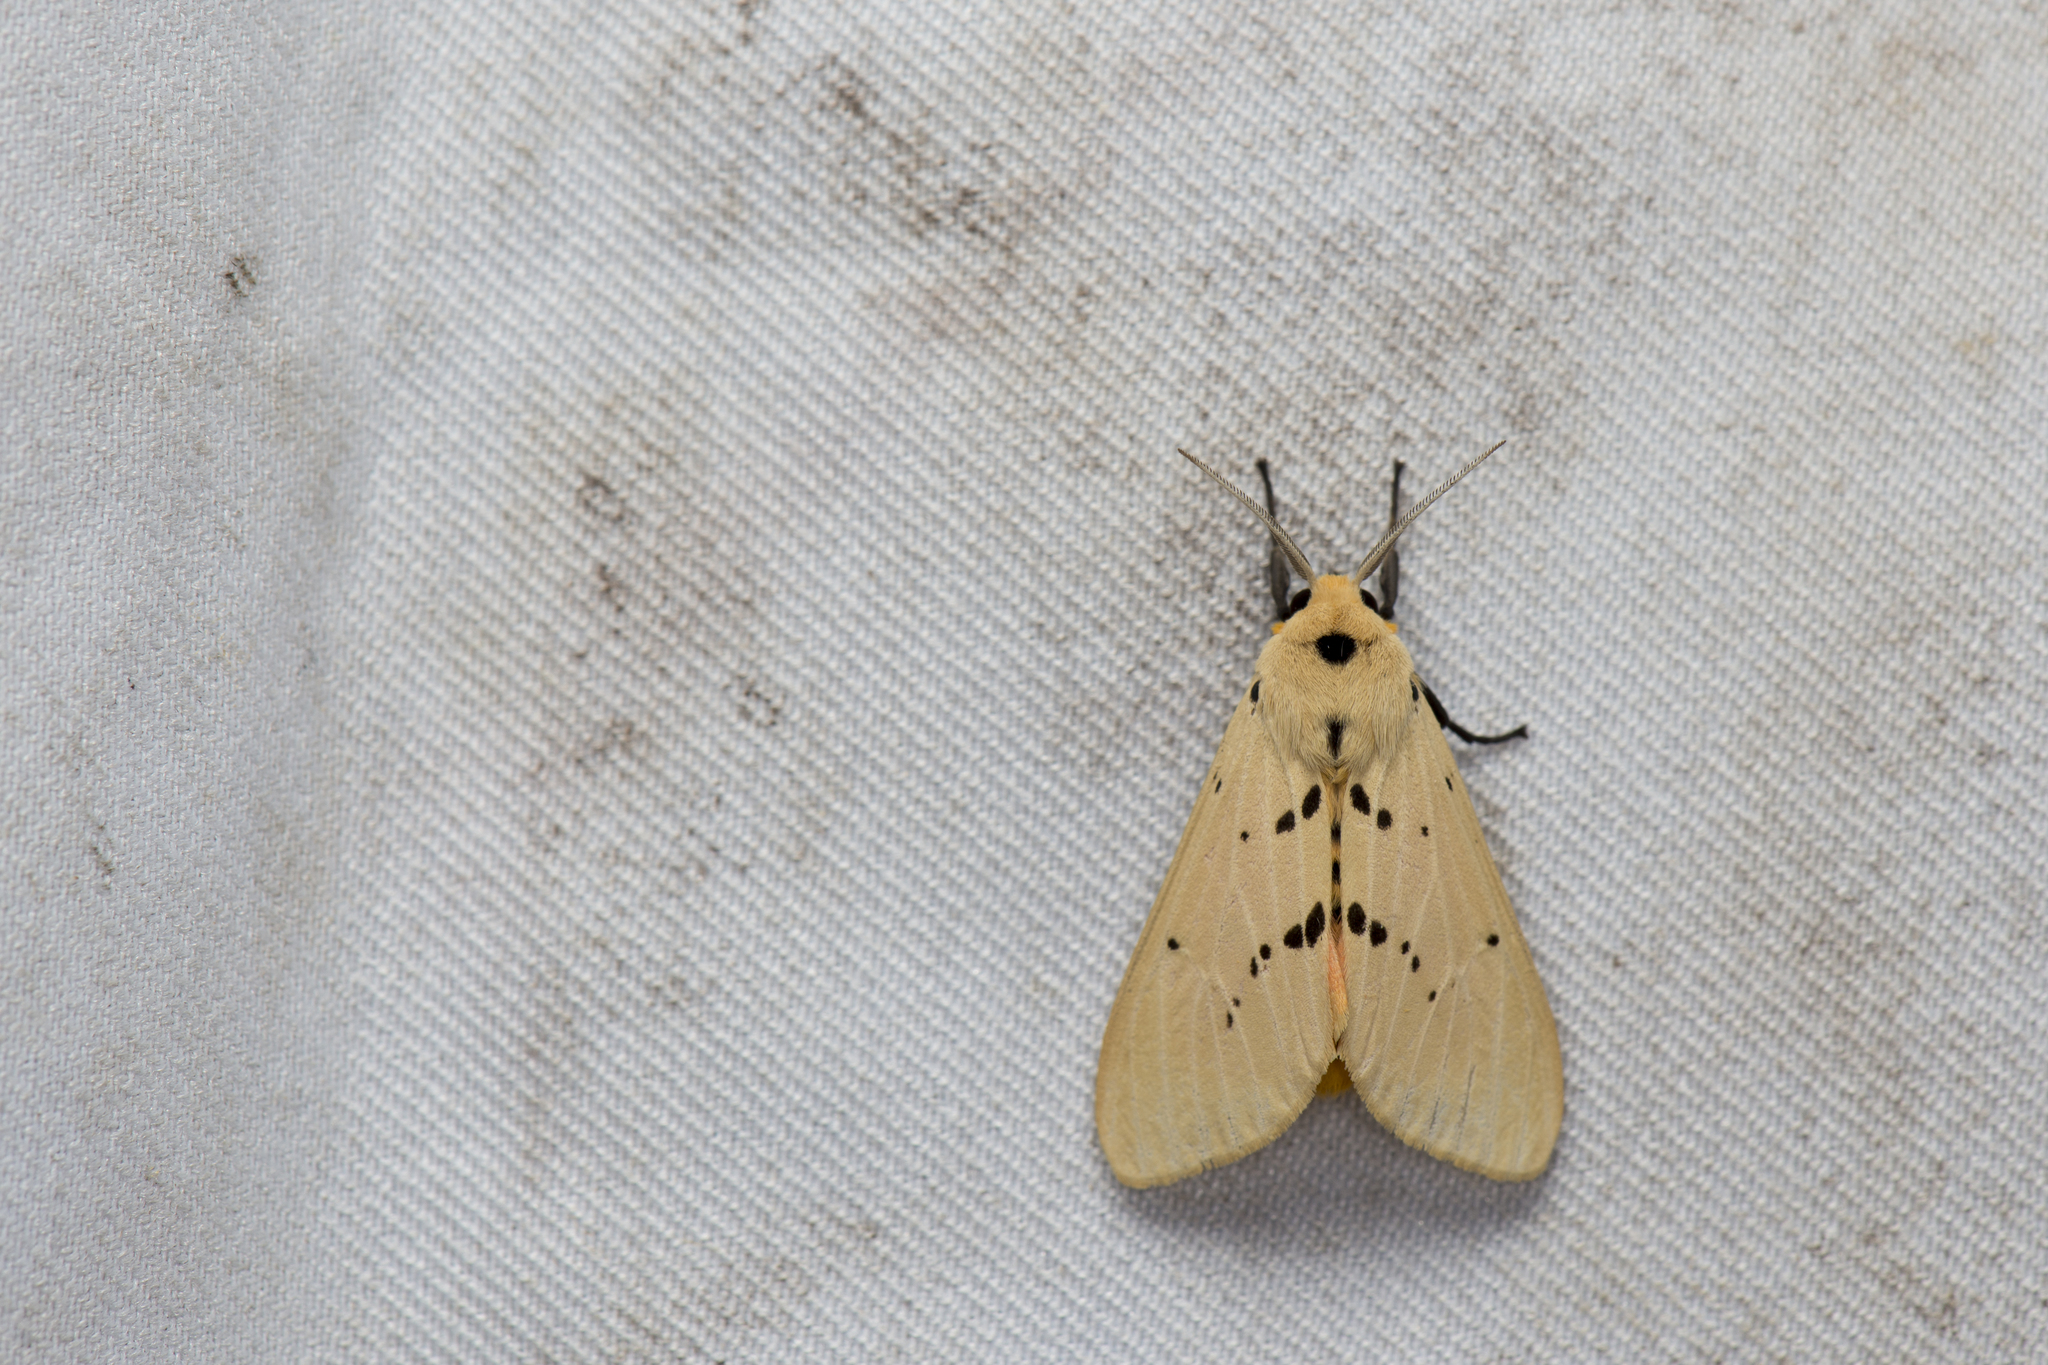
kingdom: Animalia
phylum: Arthropoda
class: Insecta
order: Lepidoptera
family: Erebidae
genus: Spilarctia
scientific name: Spilarctia postrubida
